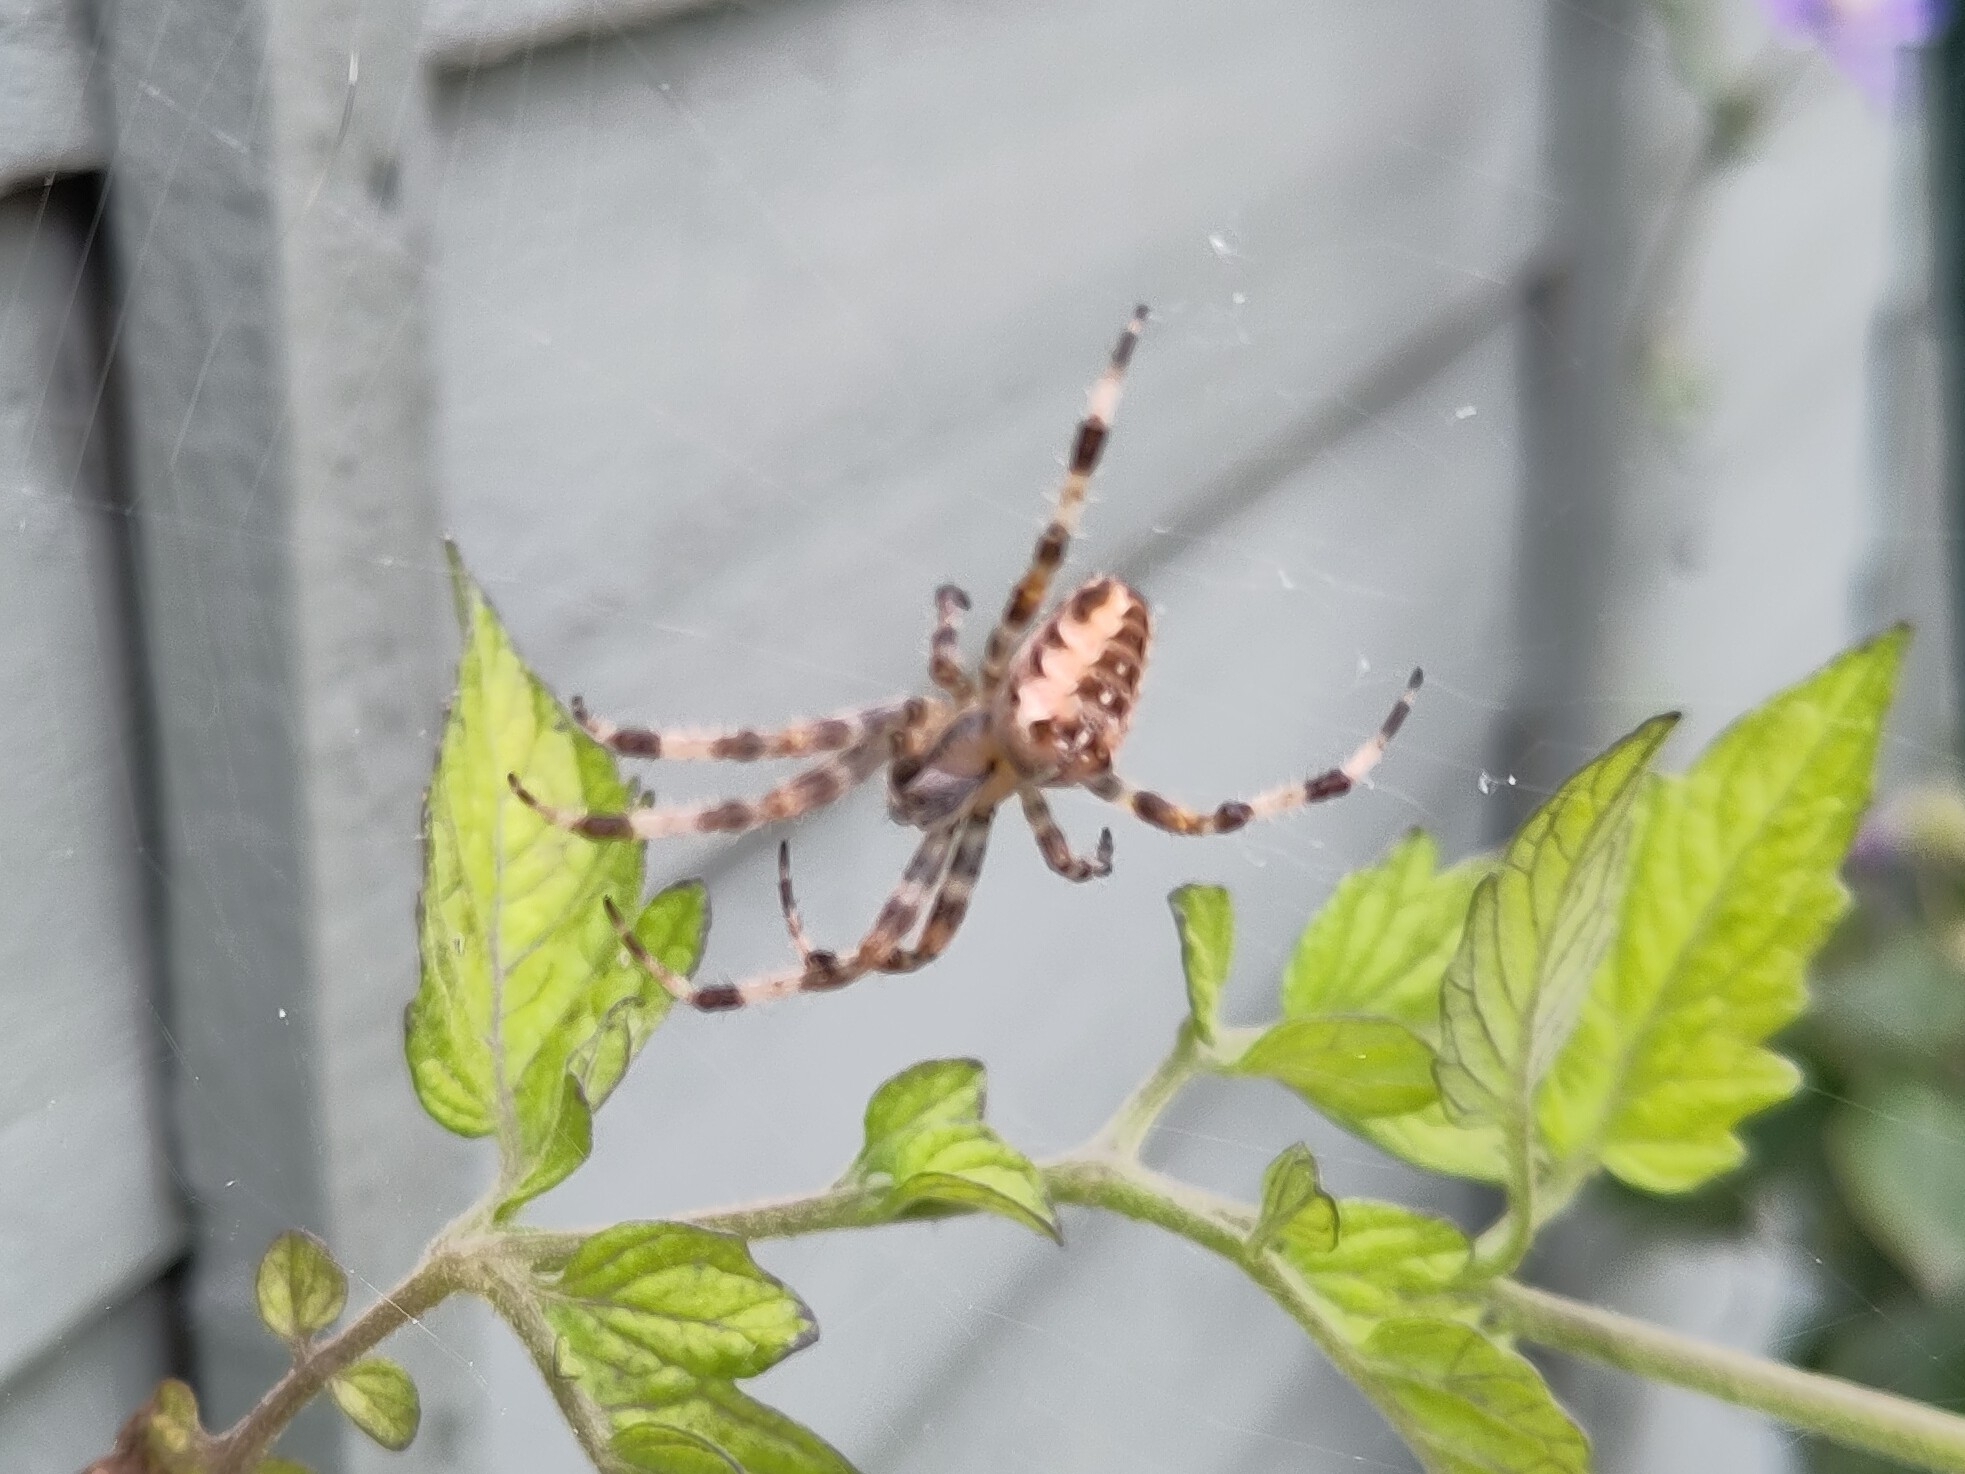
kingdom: Animalia
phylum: Arthropoda
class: Arachnida
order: Araneae
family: Araneidae
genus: Araneus
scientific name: Araneus diadematus
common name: Cross orbweaver
